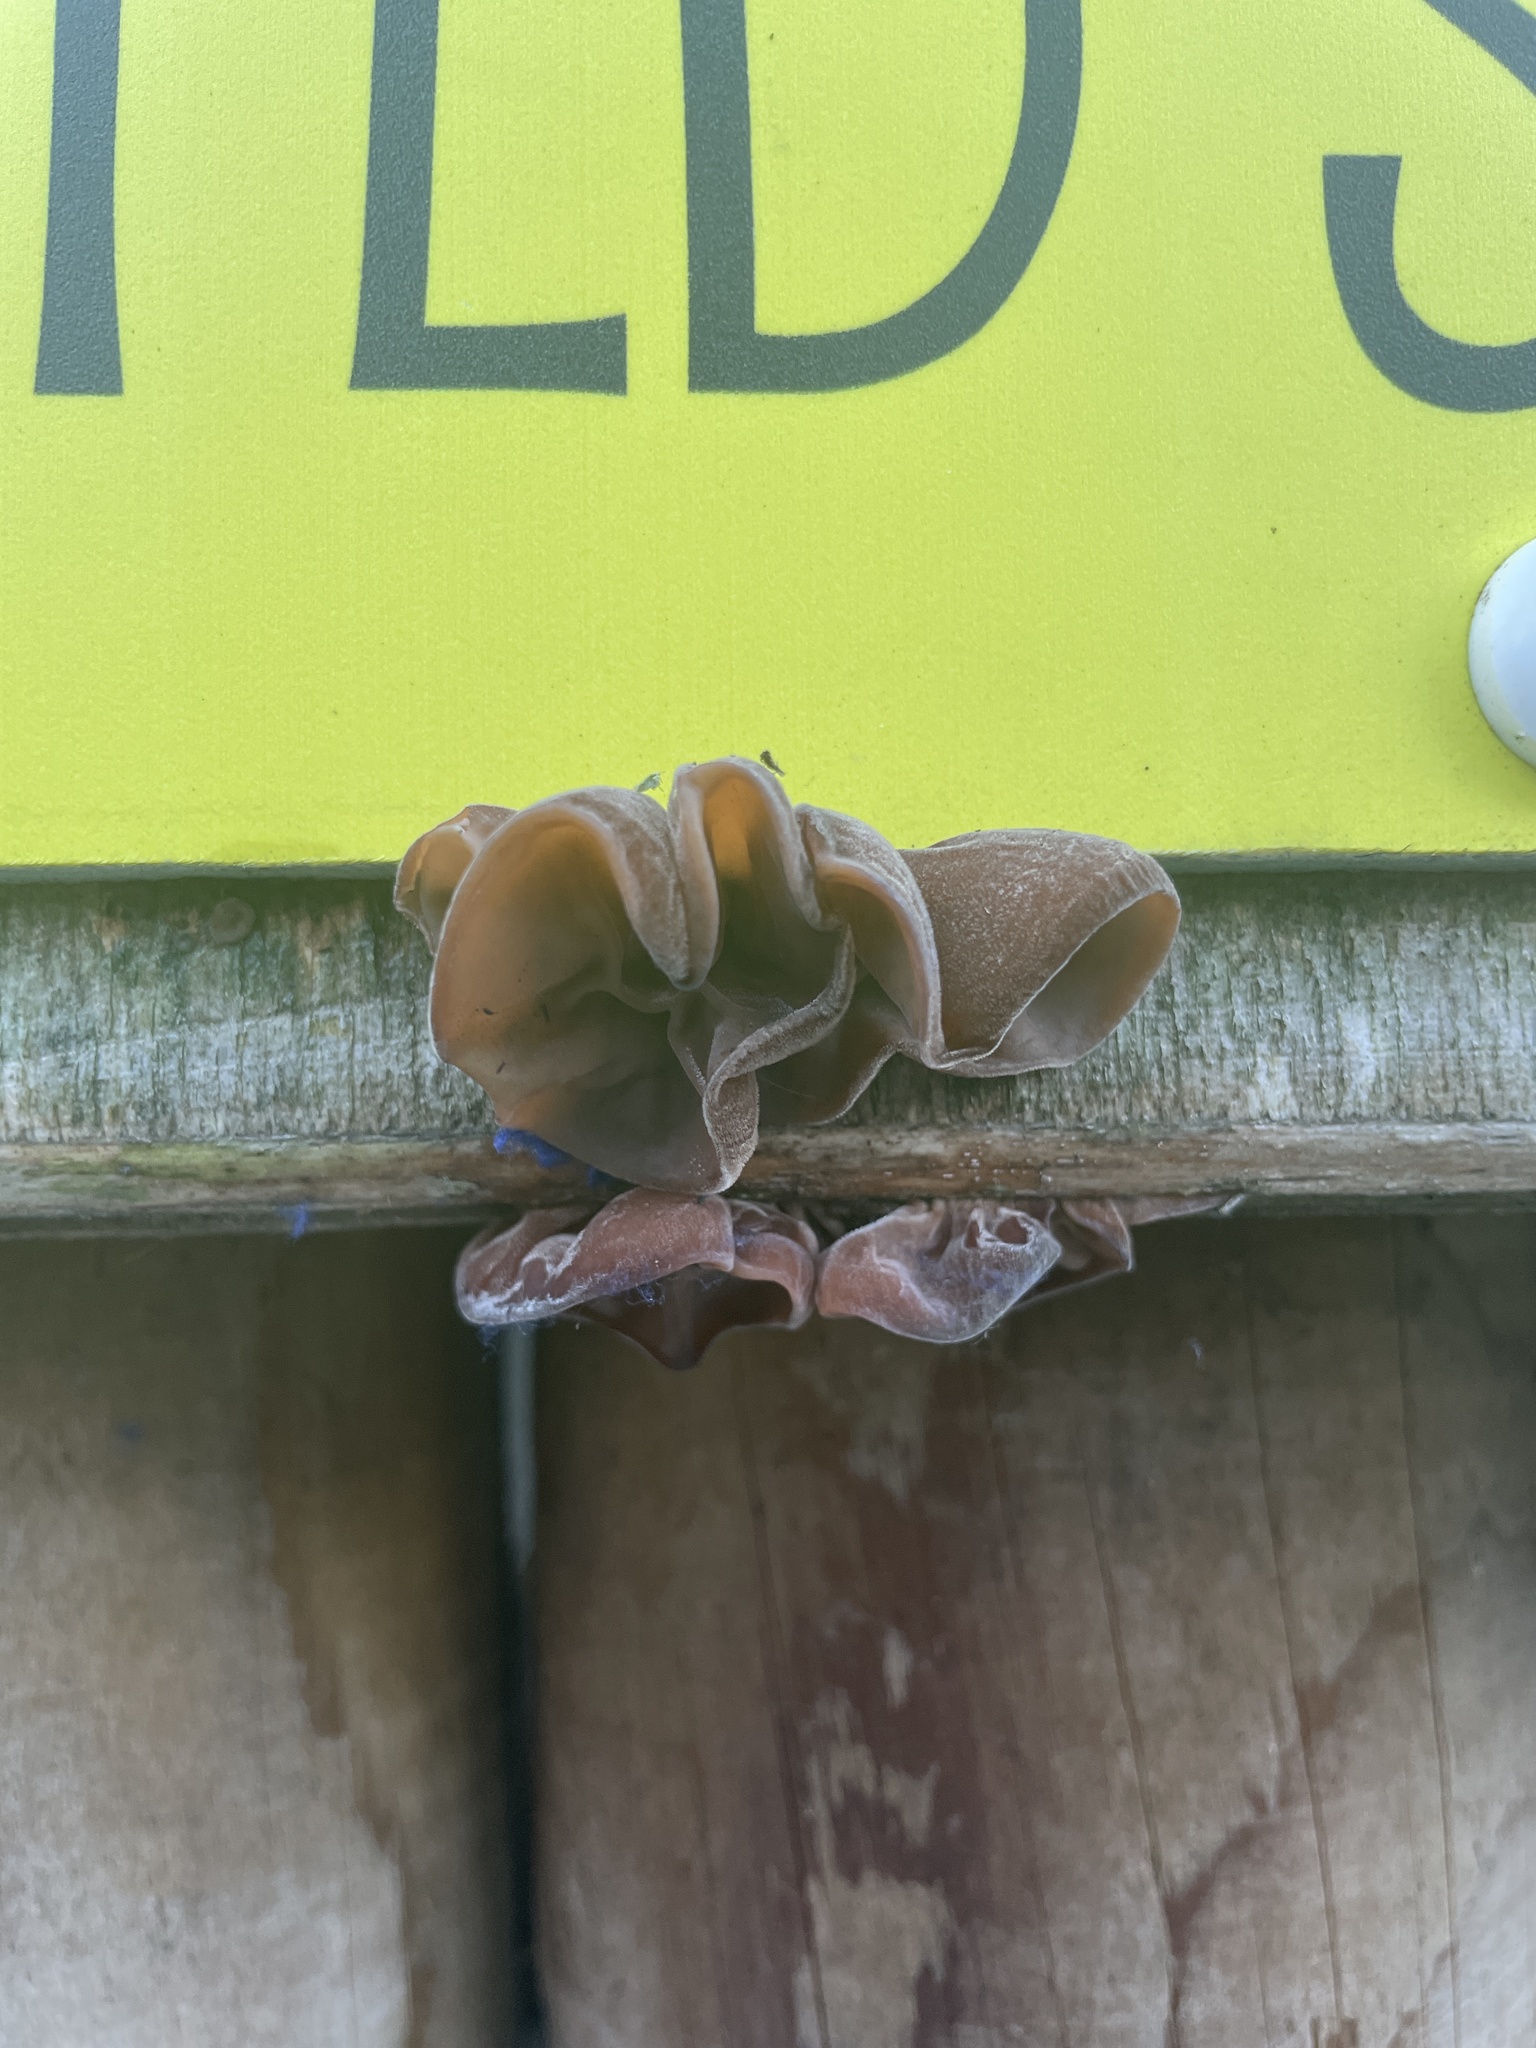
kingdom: Fungi
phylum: Basidiomycota
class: Agaricomycetes
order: Auriculariales
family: Auriculariaceae
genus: Auricularia
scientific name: Auricularia auricula-judae
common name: Jelly ear
